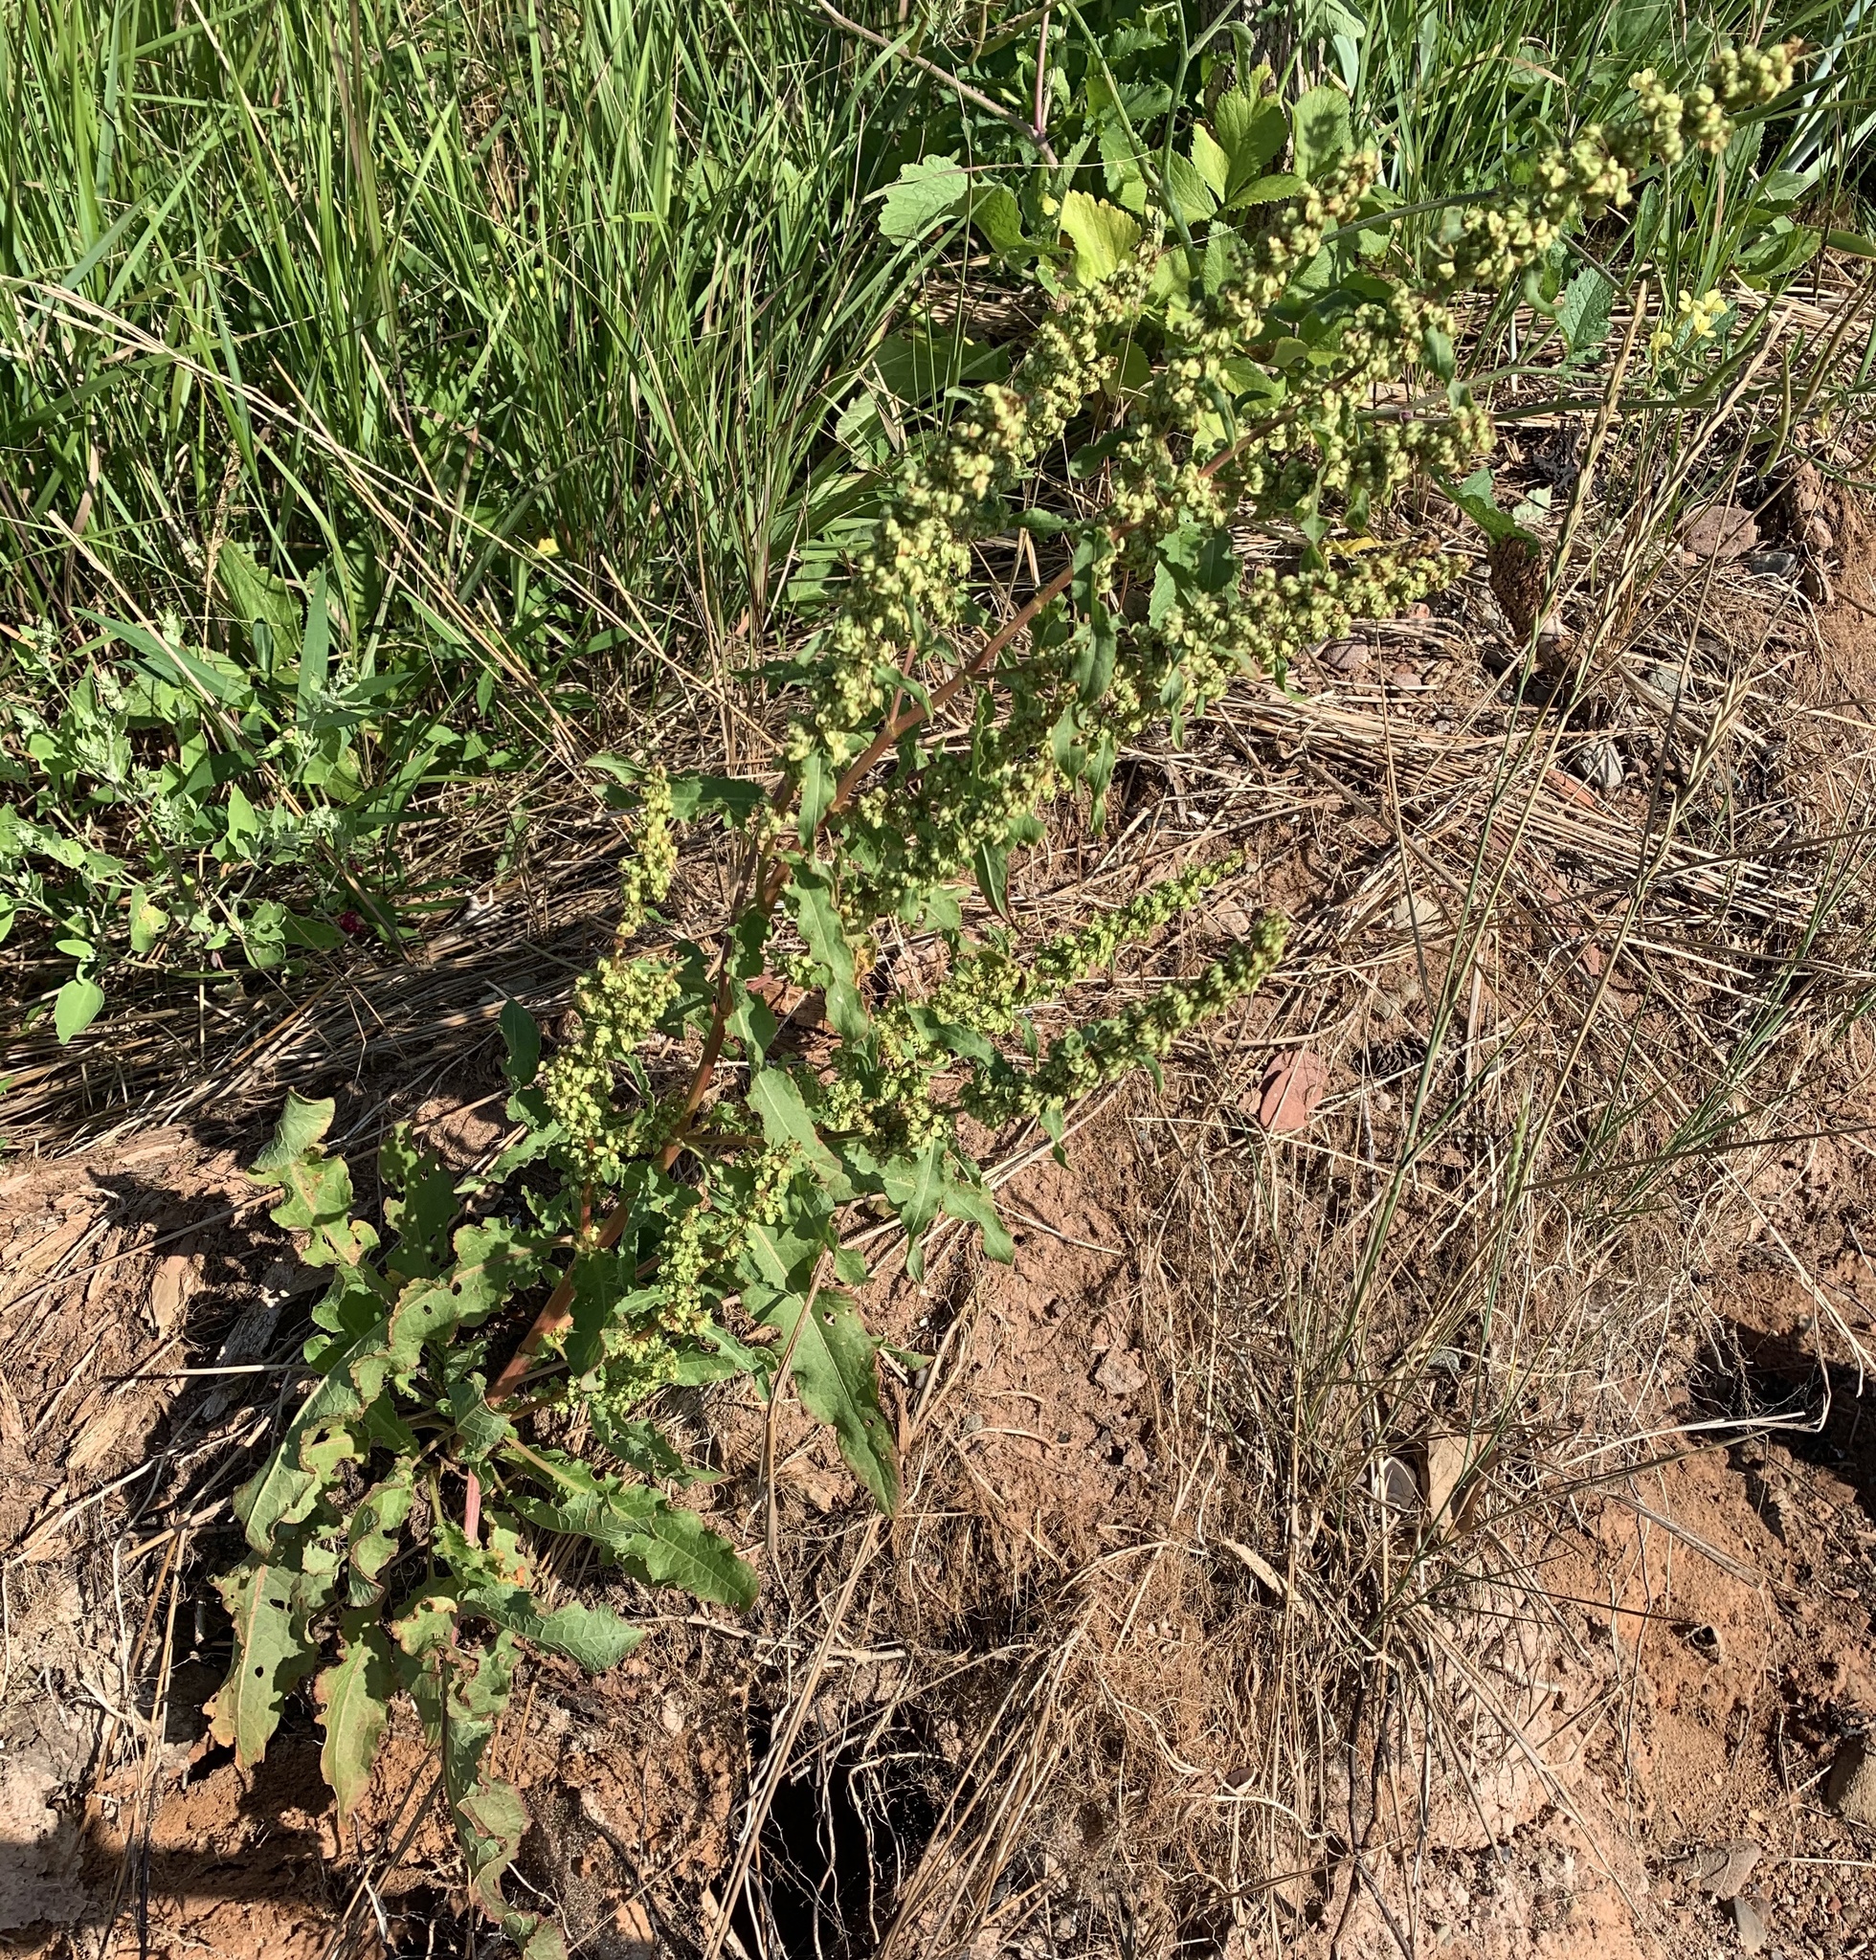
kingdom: Plantae
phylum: Tracheophyta
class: Magnoliopsida
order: Caryophyllales
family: Polygonaceae
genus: Rumex
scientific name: Rumex crispus
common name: Curled dock
